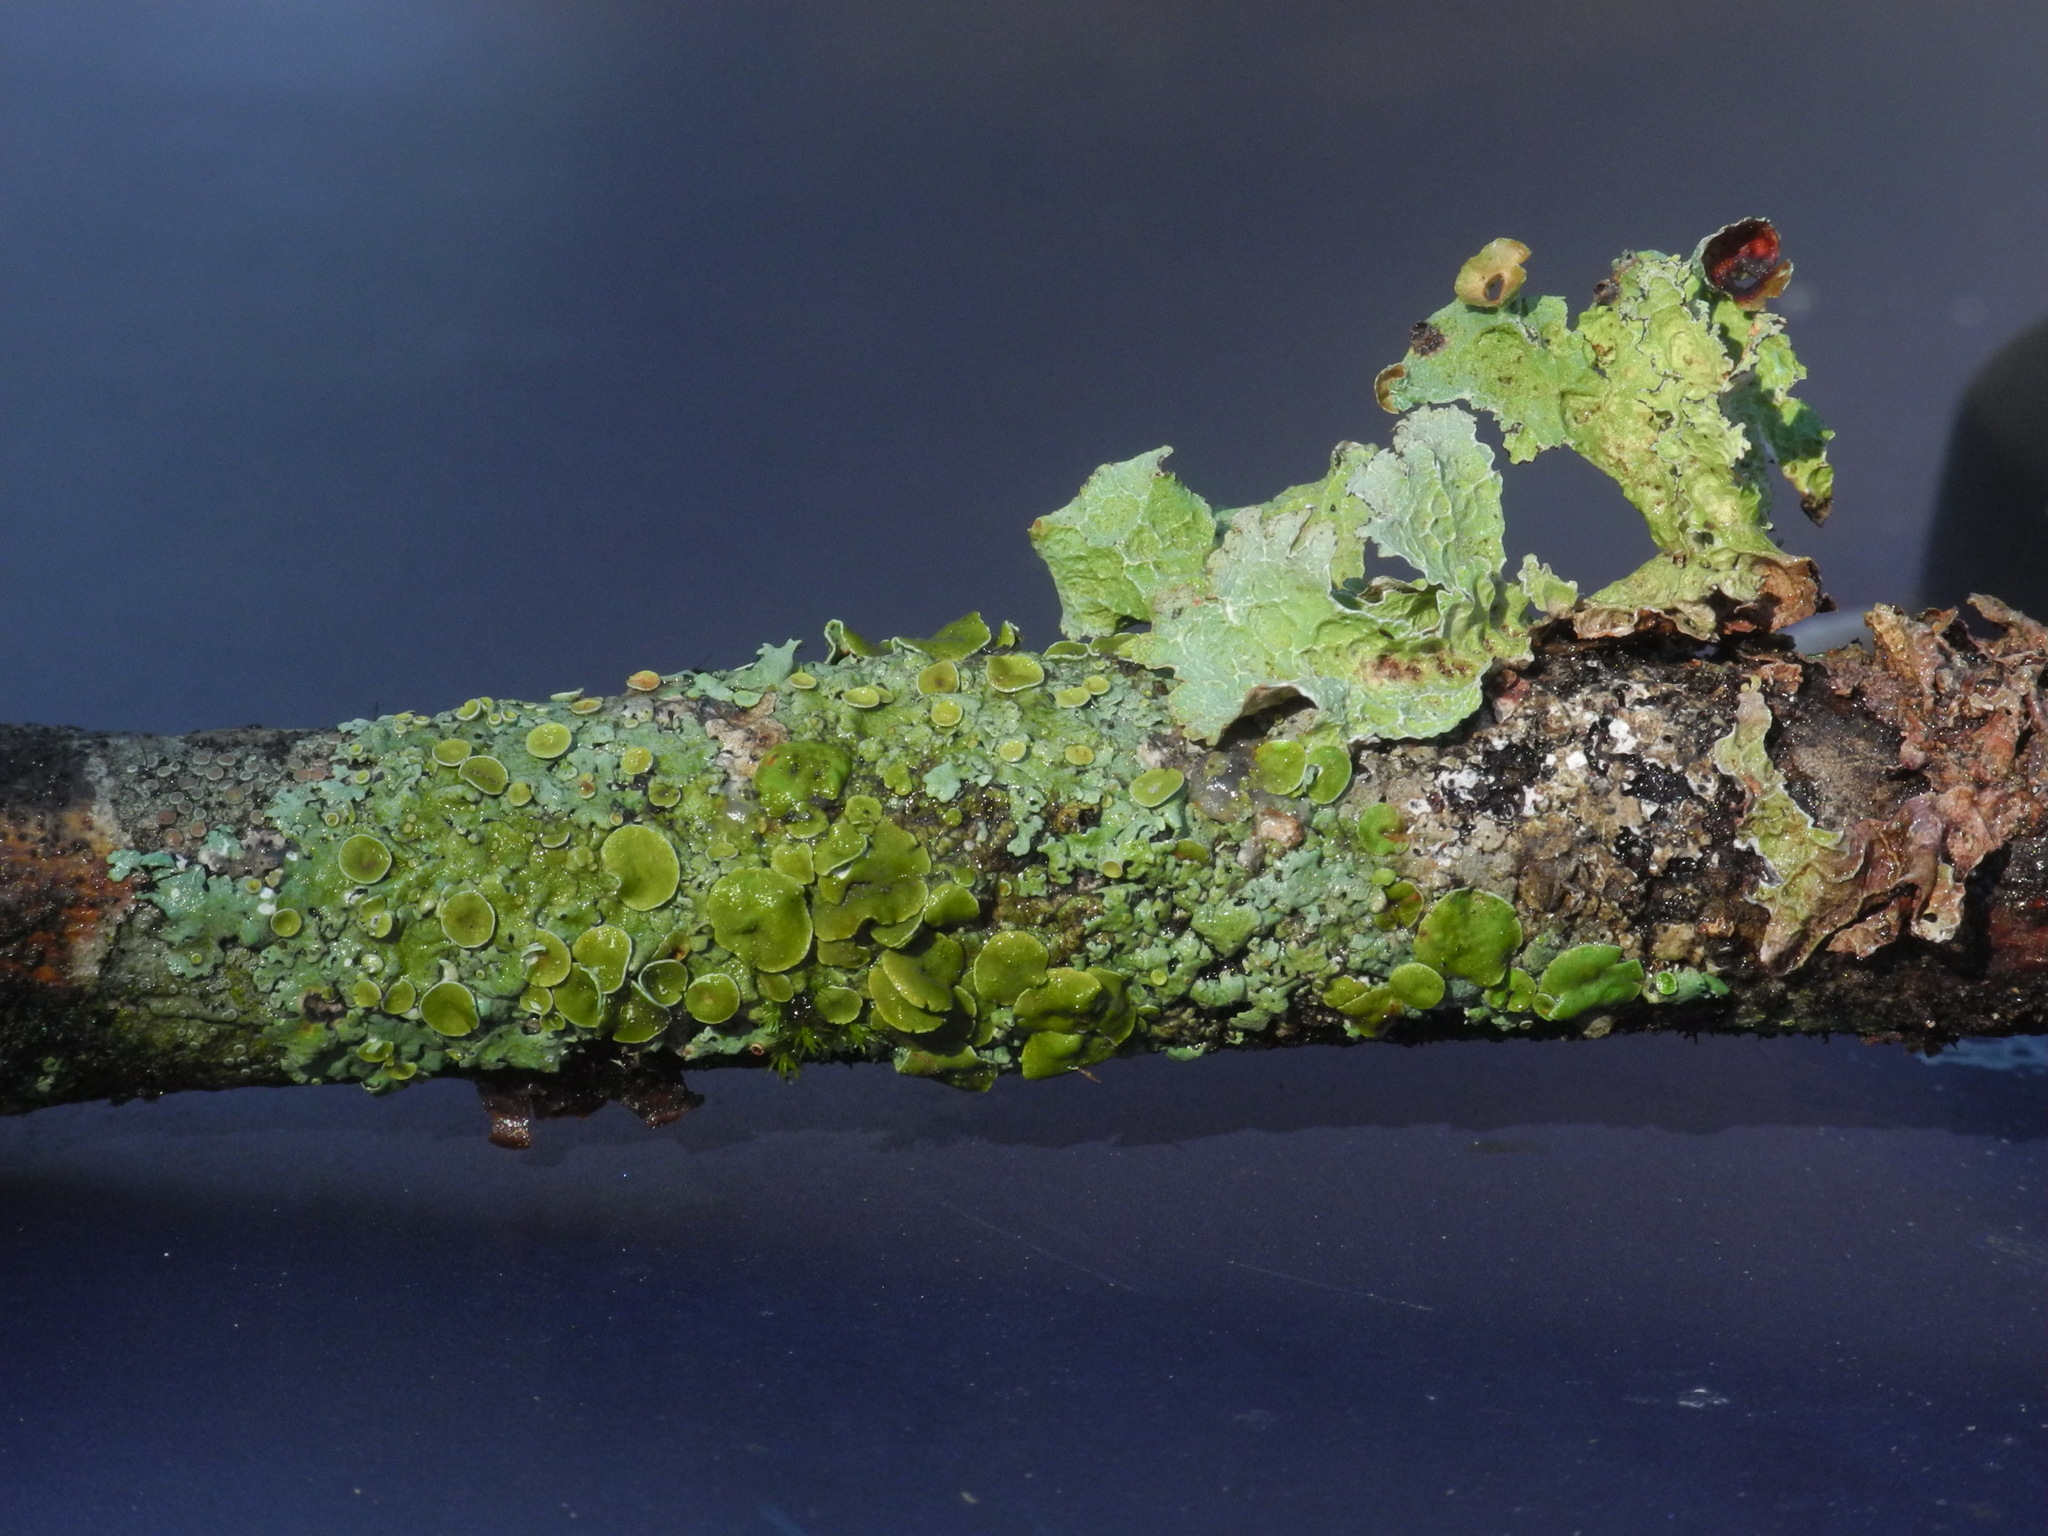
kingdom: Fungi
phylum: Ascomycota
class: Lecanoromycetes
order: Lecanorales
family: Parmeliaceae
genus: Myelochroa
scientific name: Myelochroa galbina
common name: Smooth axil-bristle lichen
